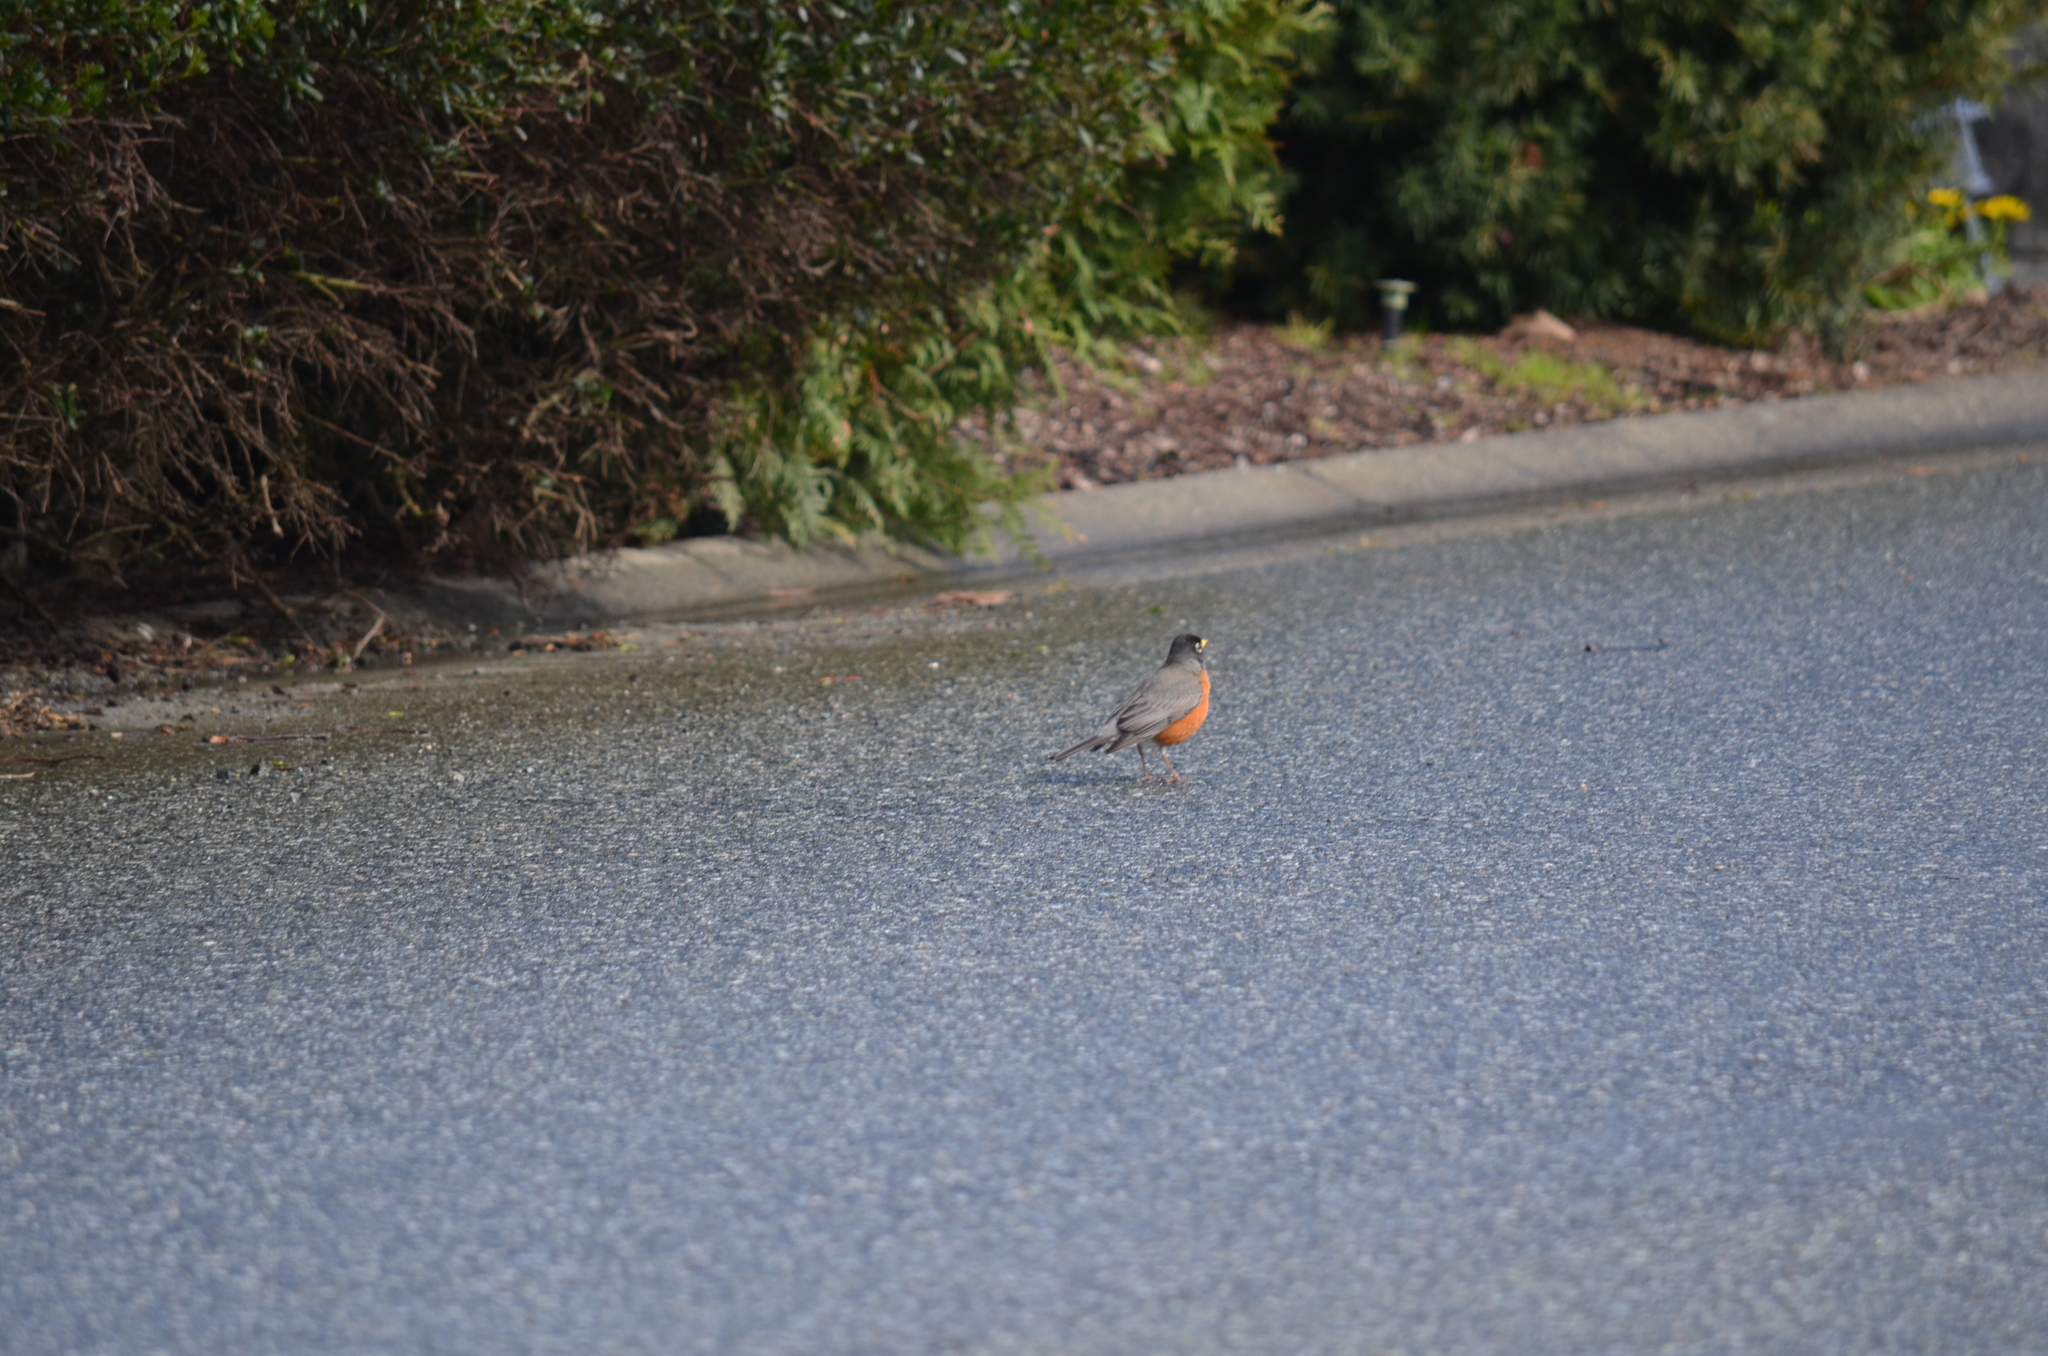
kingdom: Animalia
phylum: Chordata
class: Aves
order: Passeriformes
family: Turdidae
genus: Turdus
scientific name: Turdus migratorius
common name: American robin
